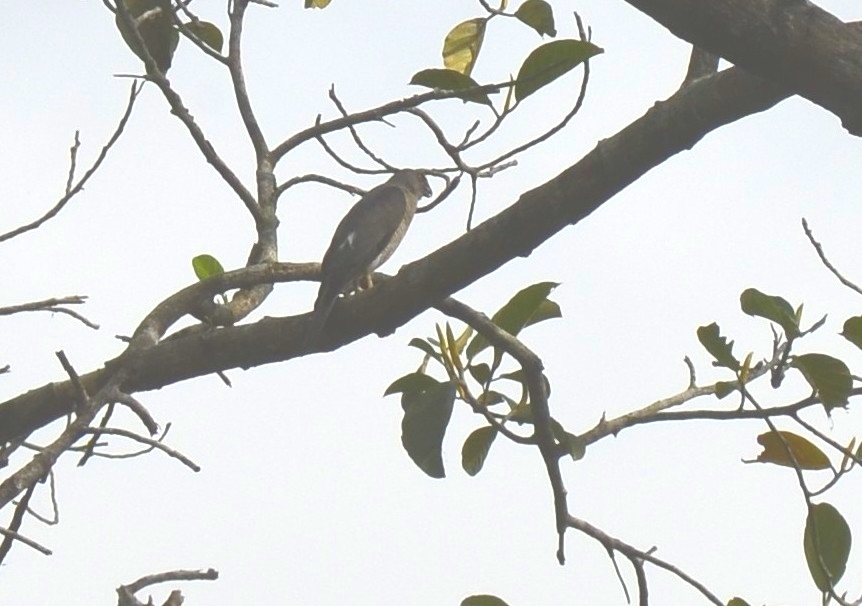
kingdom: Animalia
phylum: Chordata
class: Aves
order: Accipitriformes
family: Accipitridae
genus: Accipiter
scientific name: Accipiter badius
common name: Shikra
